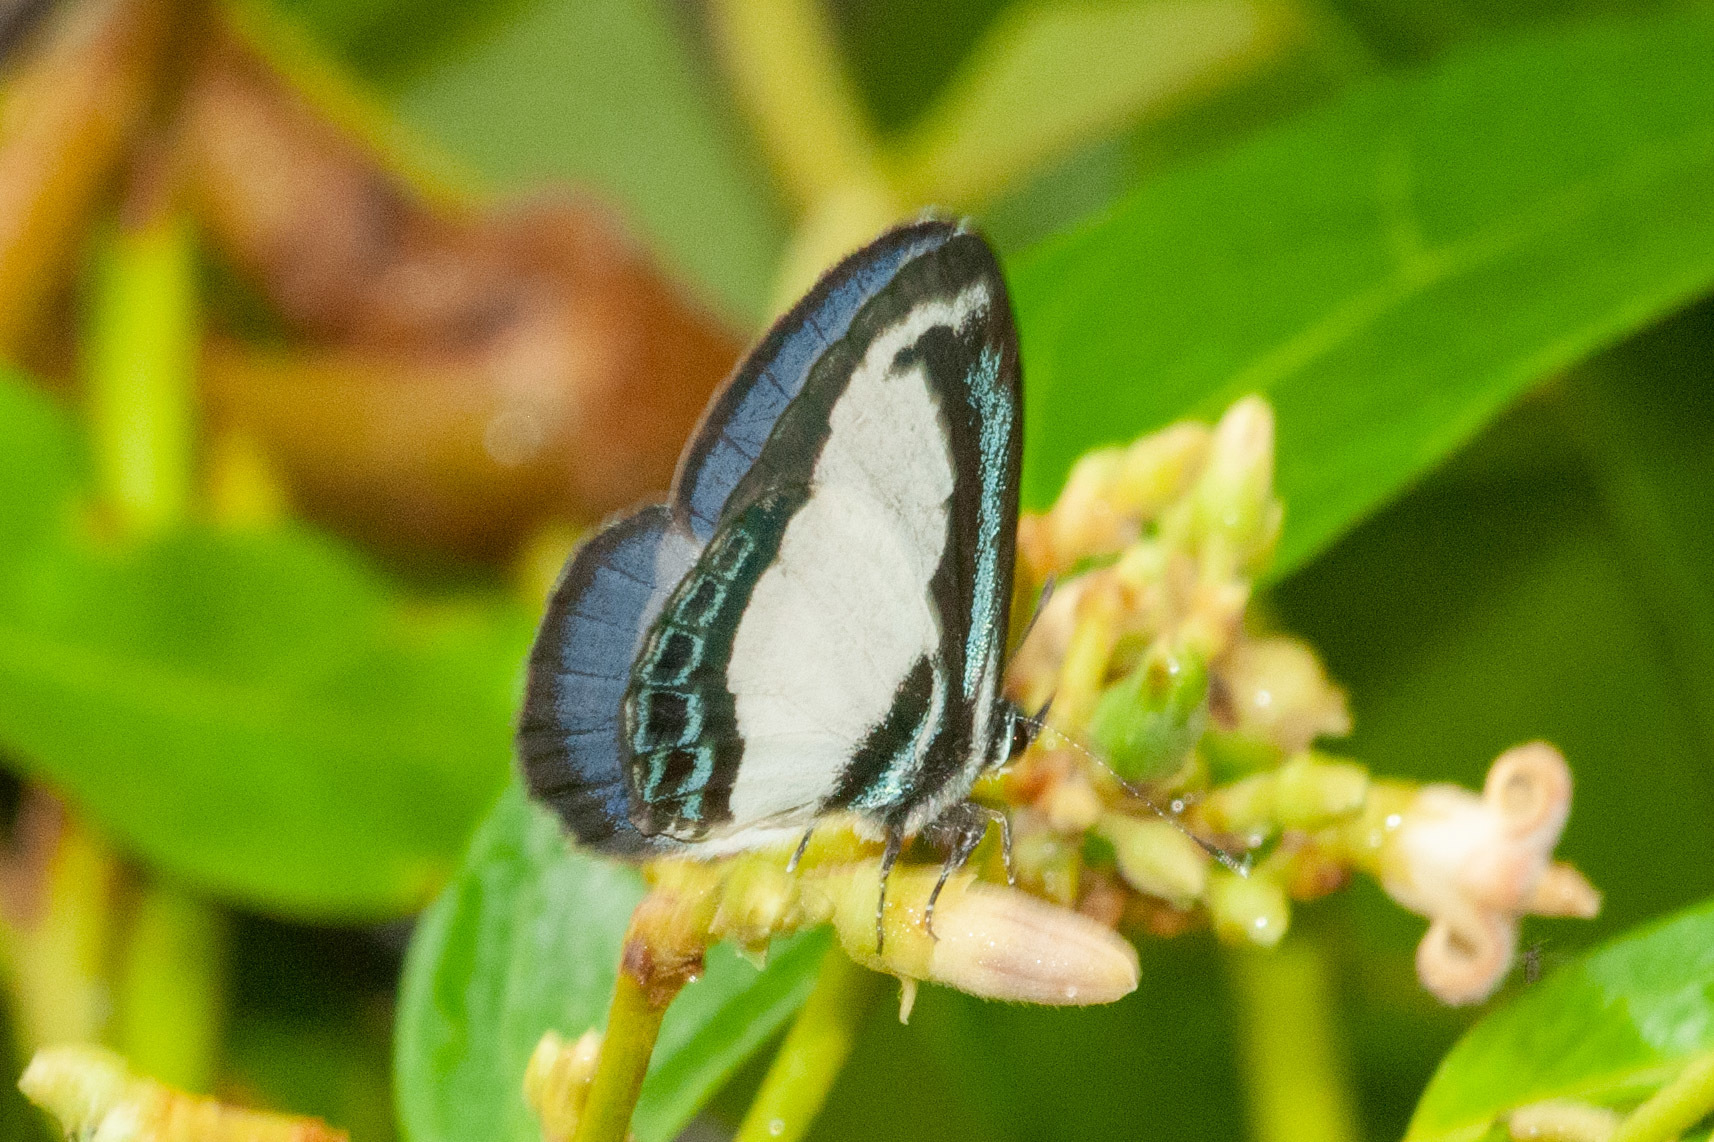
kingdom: Animalia
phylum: Arthropoda
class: Insecta
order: Lepidoptera
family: Lycaenidae
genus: Psychonotis
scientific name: Psychonotis caelius
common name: Small green banded blue
